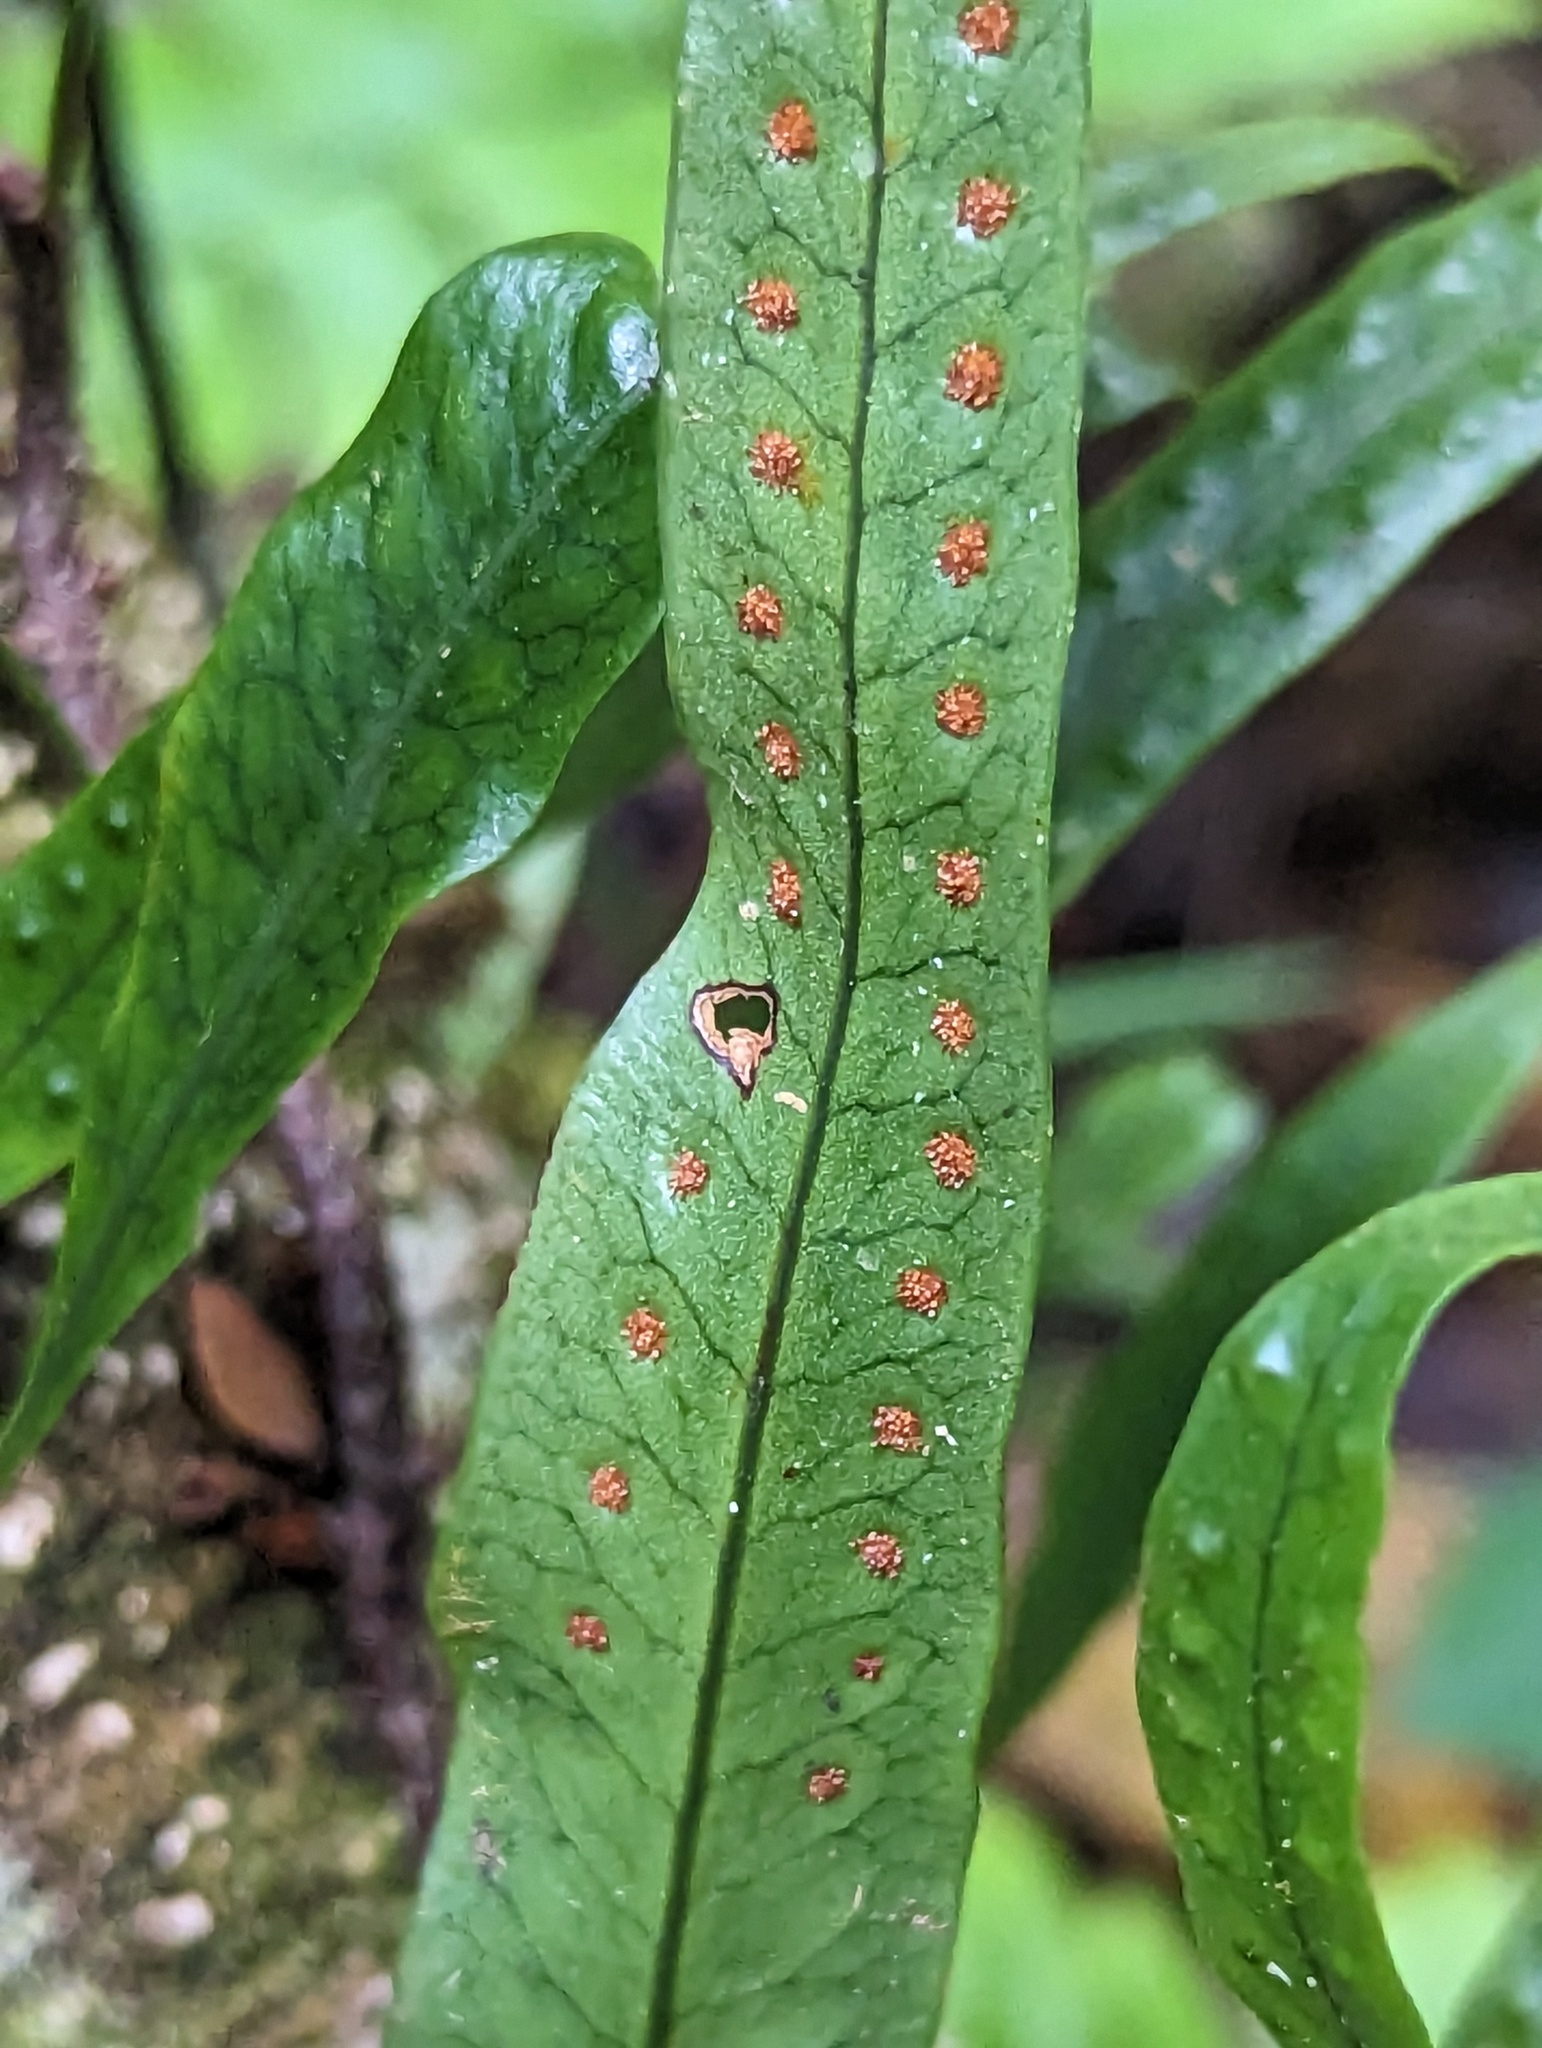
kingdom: Plantae
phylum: Tracheophyta
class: Polypodiopsida
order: Polypodiales
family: Polypodiaceae
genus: Microgramma
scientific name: Microgramma lycopodioides
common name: Bastard catclaw
